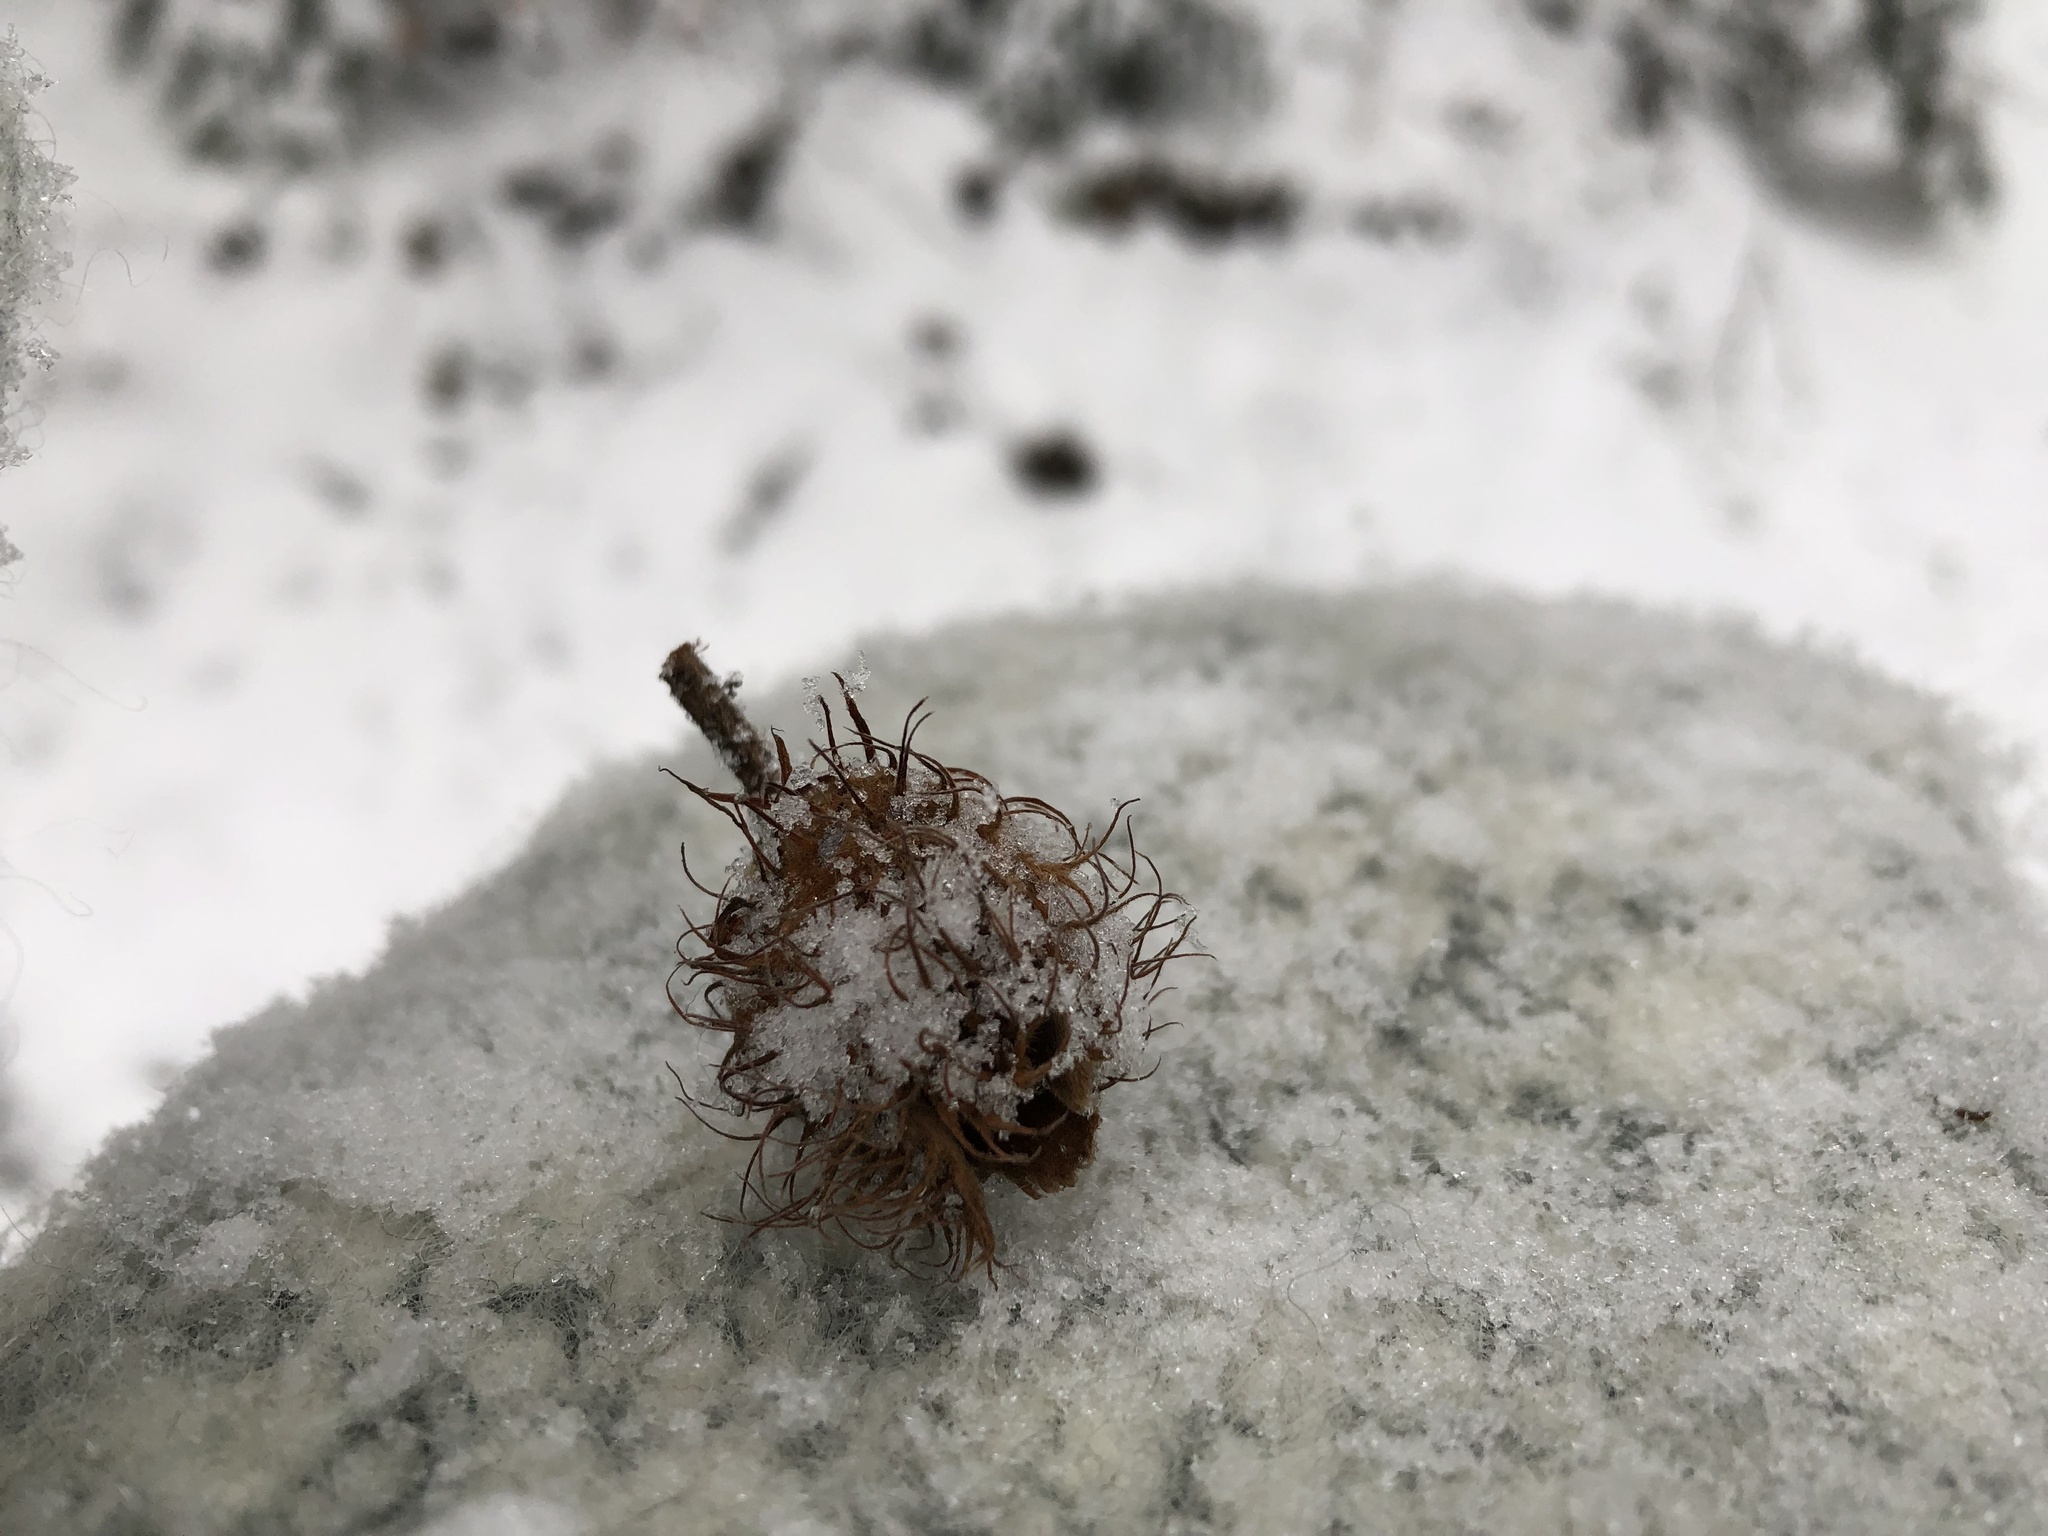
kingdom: Plantae
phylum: Tracheophyta
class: Magnoliopsida
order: Fagales
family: Fagaceae
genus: Fagus
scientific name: Fagus sylvatica
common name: Beech
